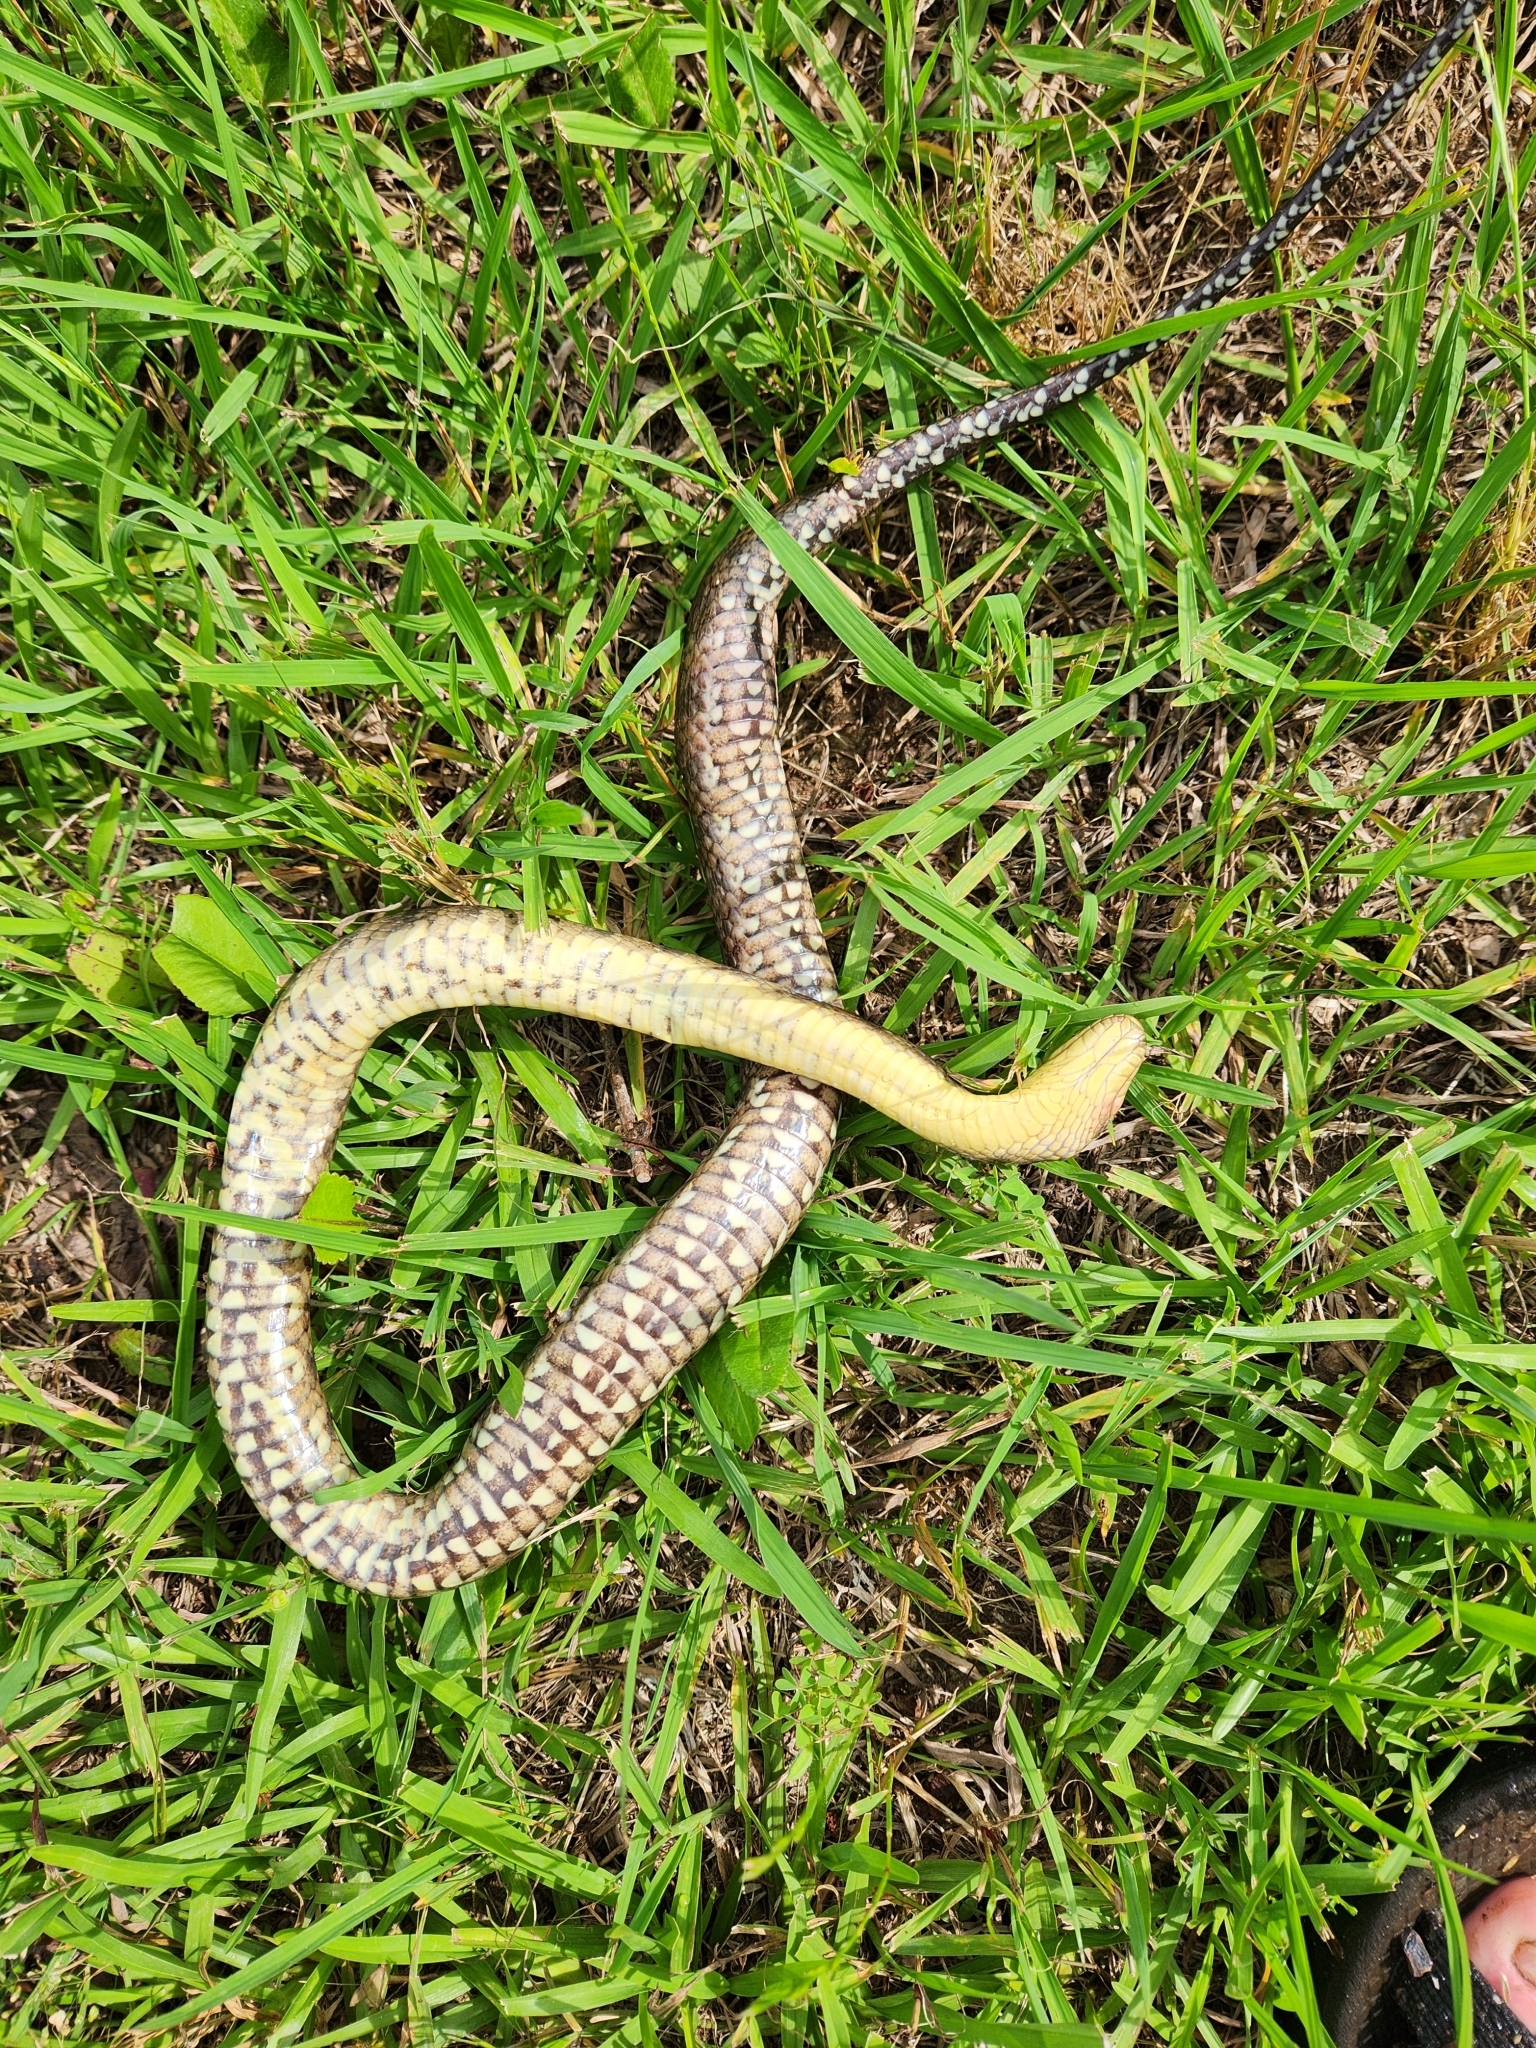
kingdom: Animalia
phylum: Chordata
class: Squamata
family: Colubridae
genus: Nerodia
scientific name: Nerodia cyclopion
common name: Mississippi green water snake
